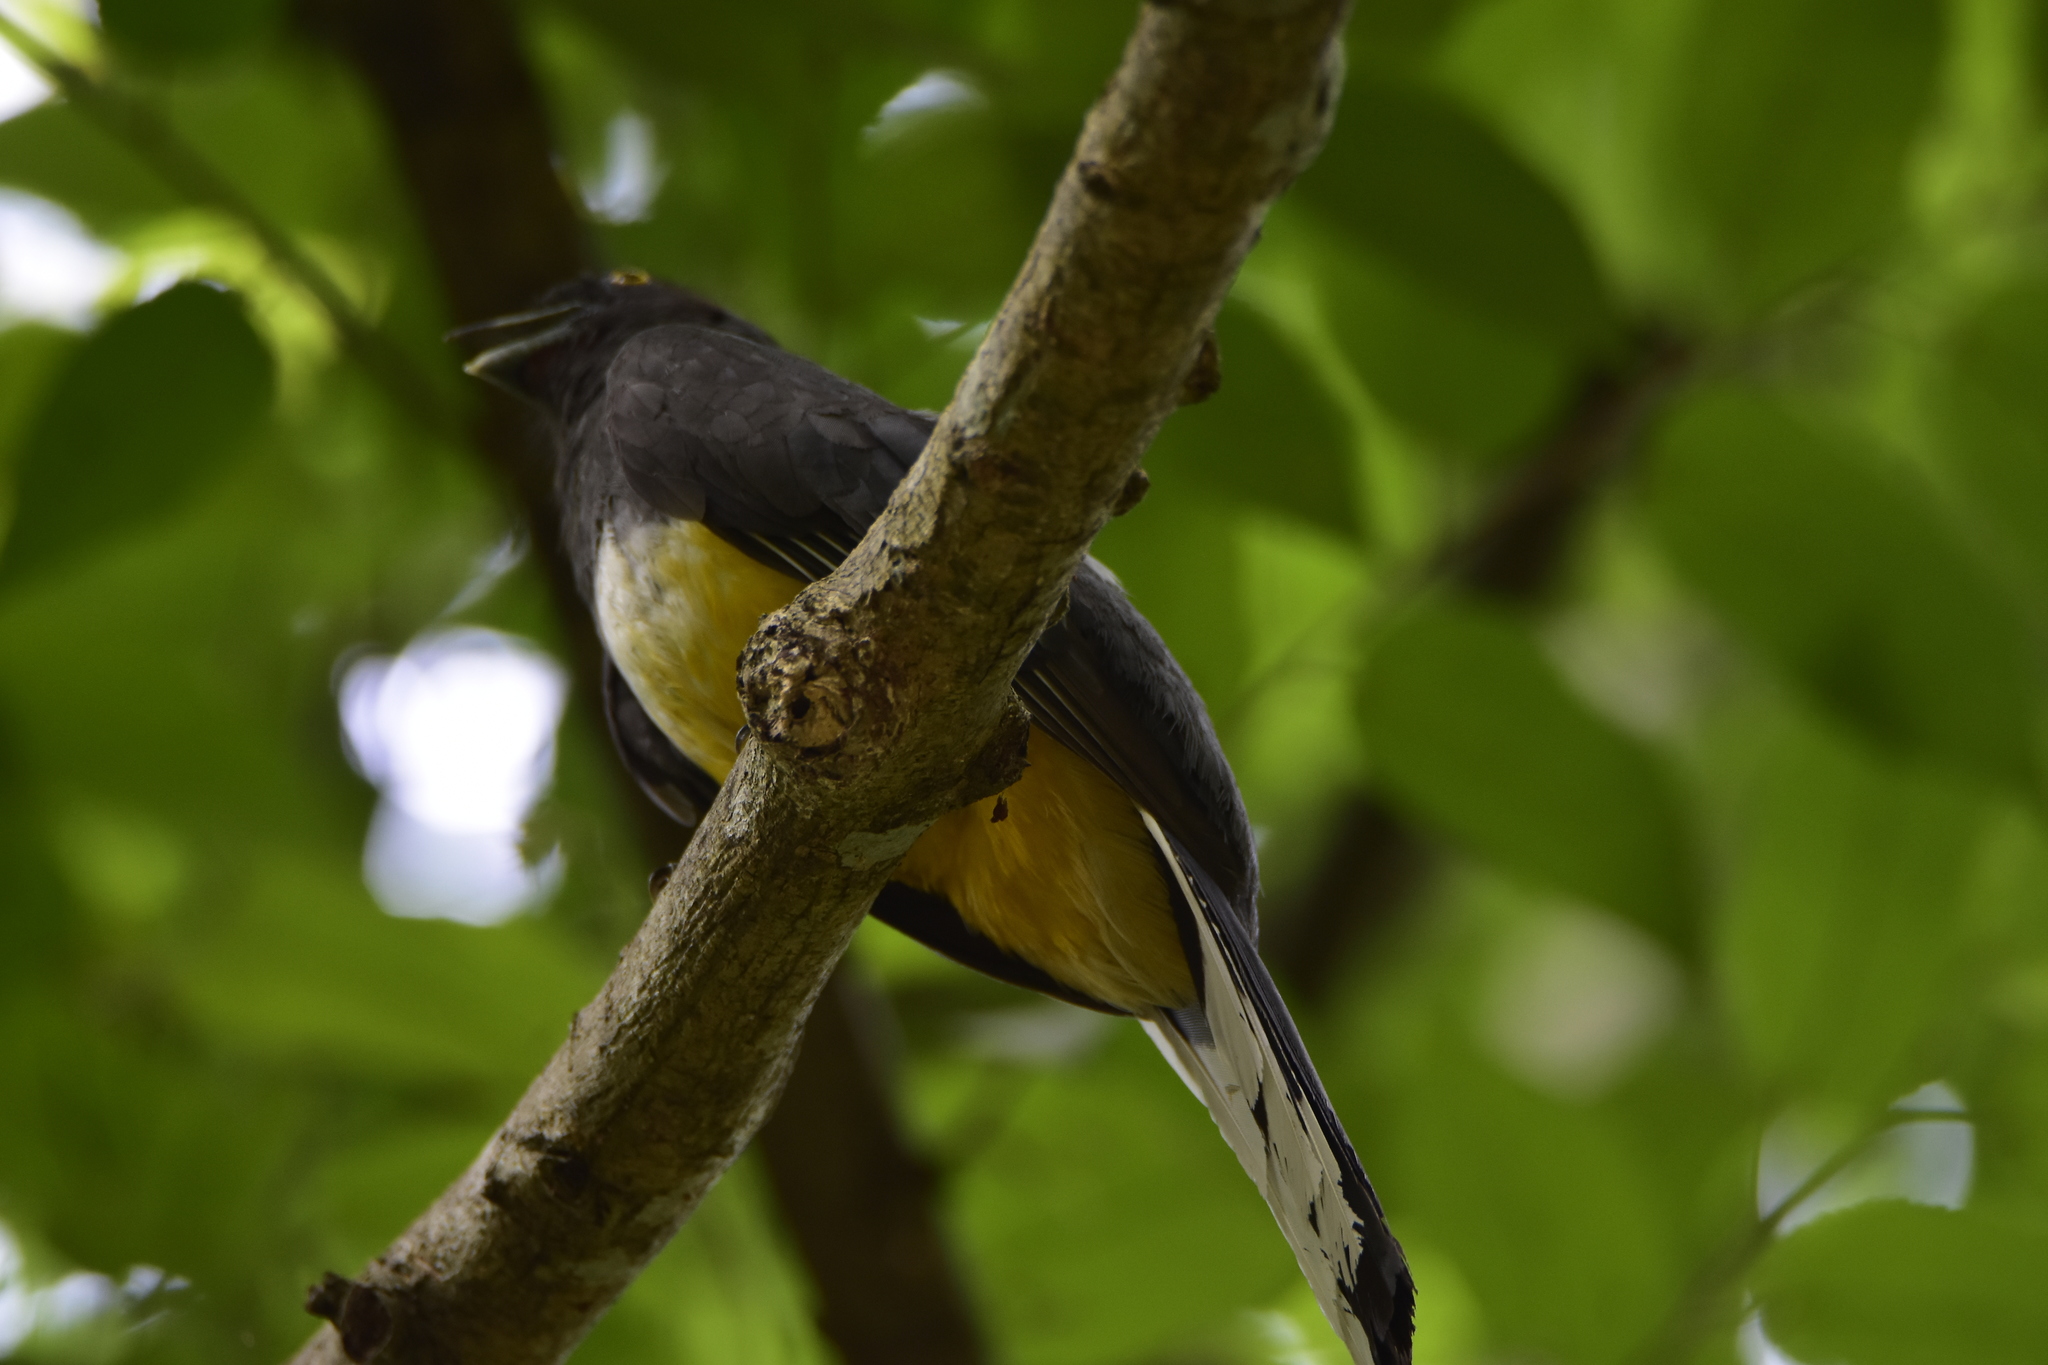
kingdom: Animalia
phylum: Chordata
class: Aves
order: Trogoniformes
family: Trogonidae
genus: Trogon
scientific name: Trogon citreolus
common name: Citreoline trogon
